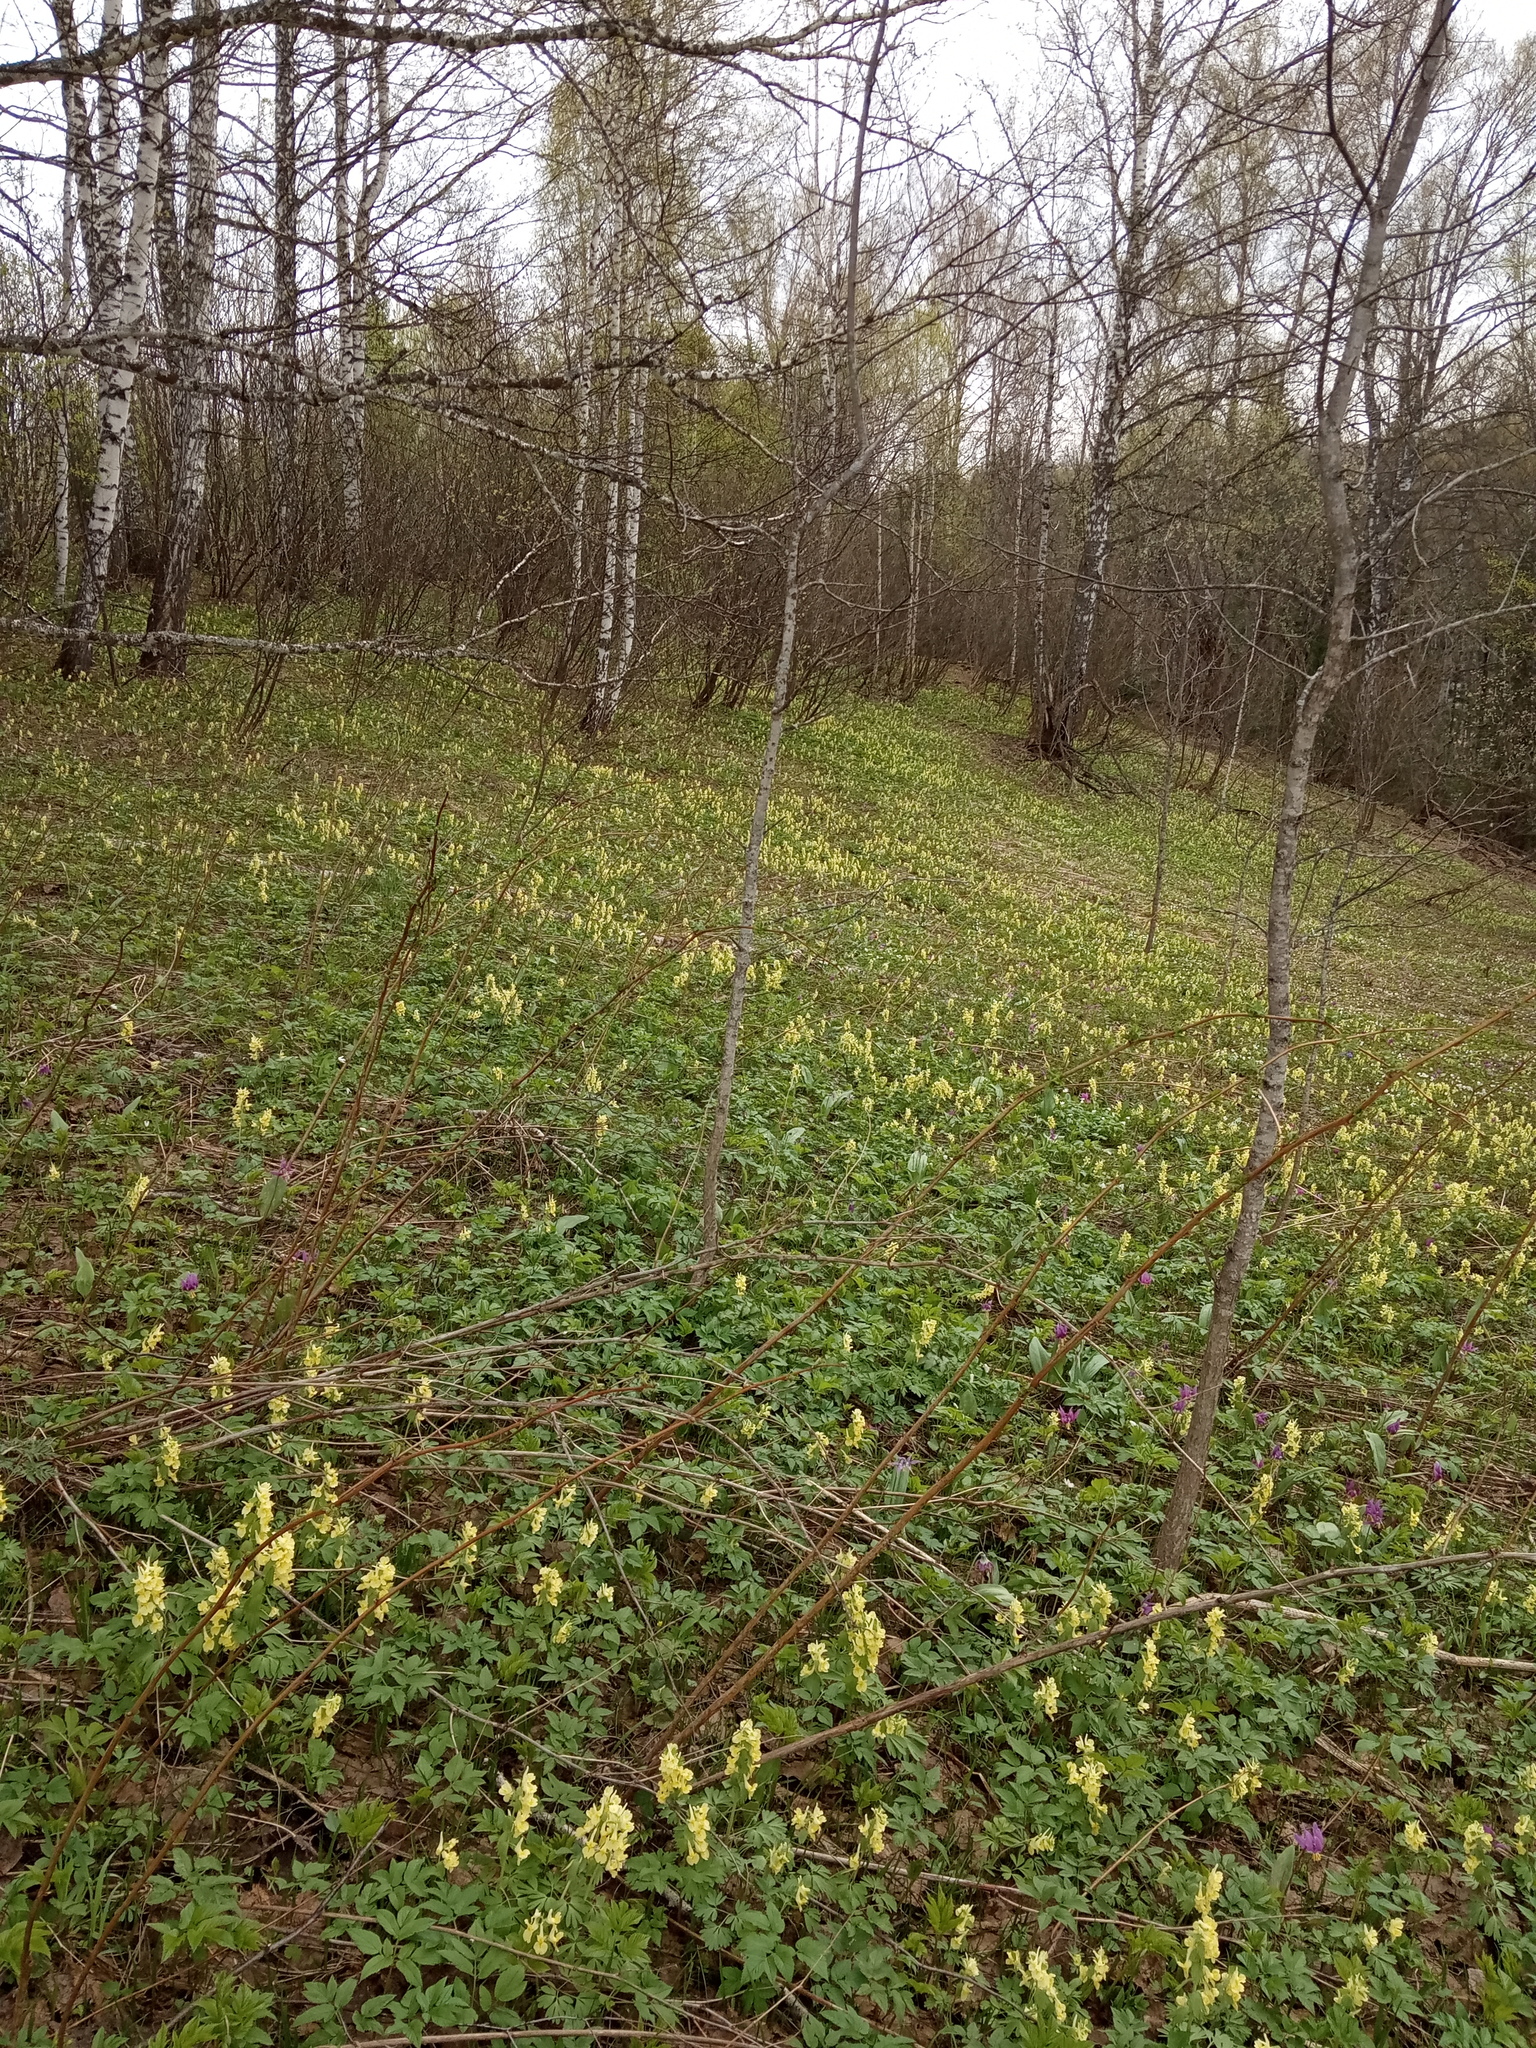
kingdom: Plantae
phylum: Tracheophyta
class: Magnoliopsida
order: Ranunculales
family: Papaveraceae
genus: Corydalis
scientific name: Corydalis bracteata
